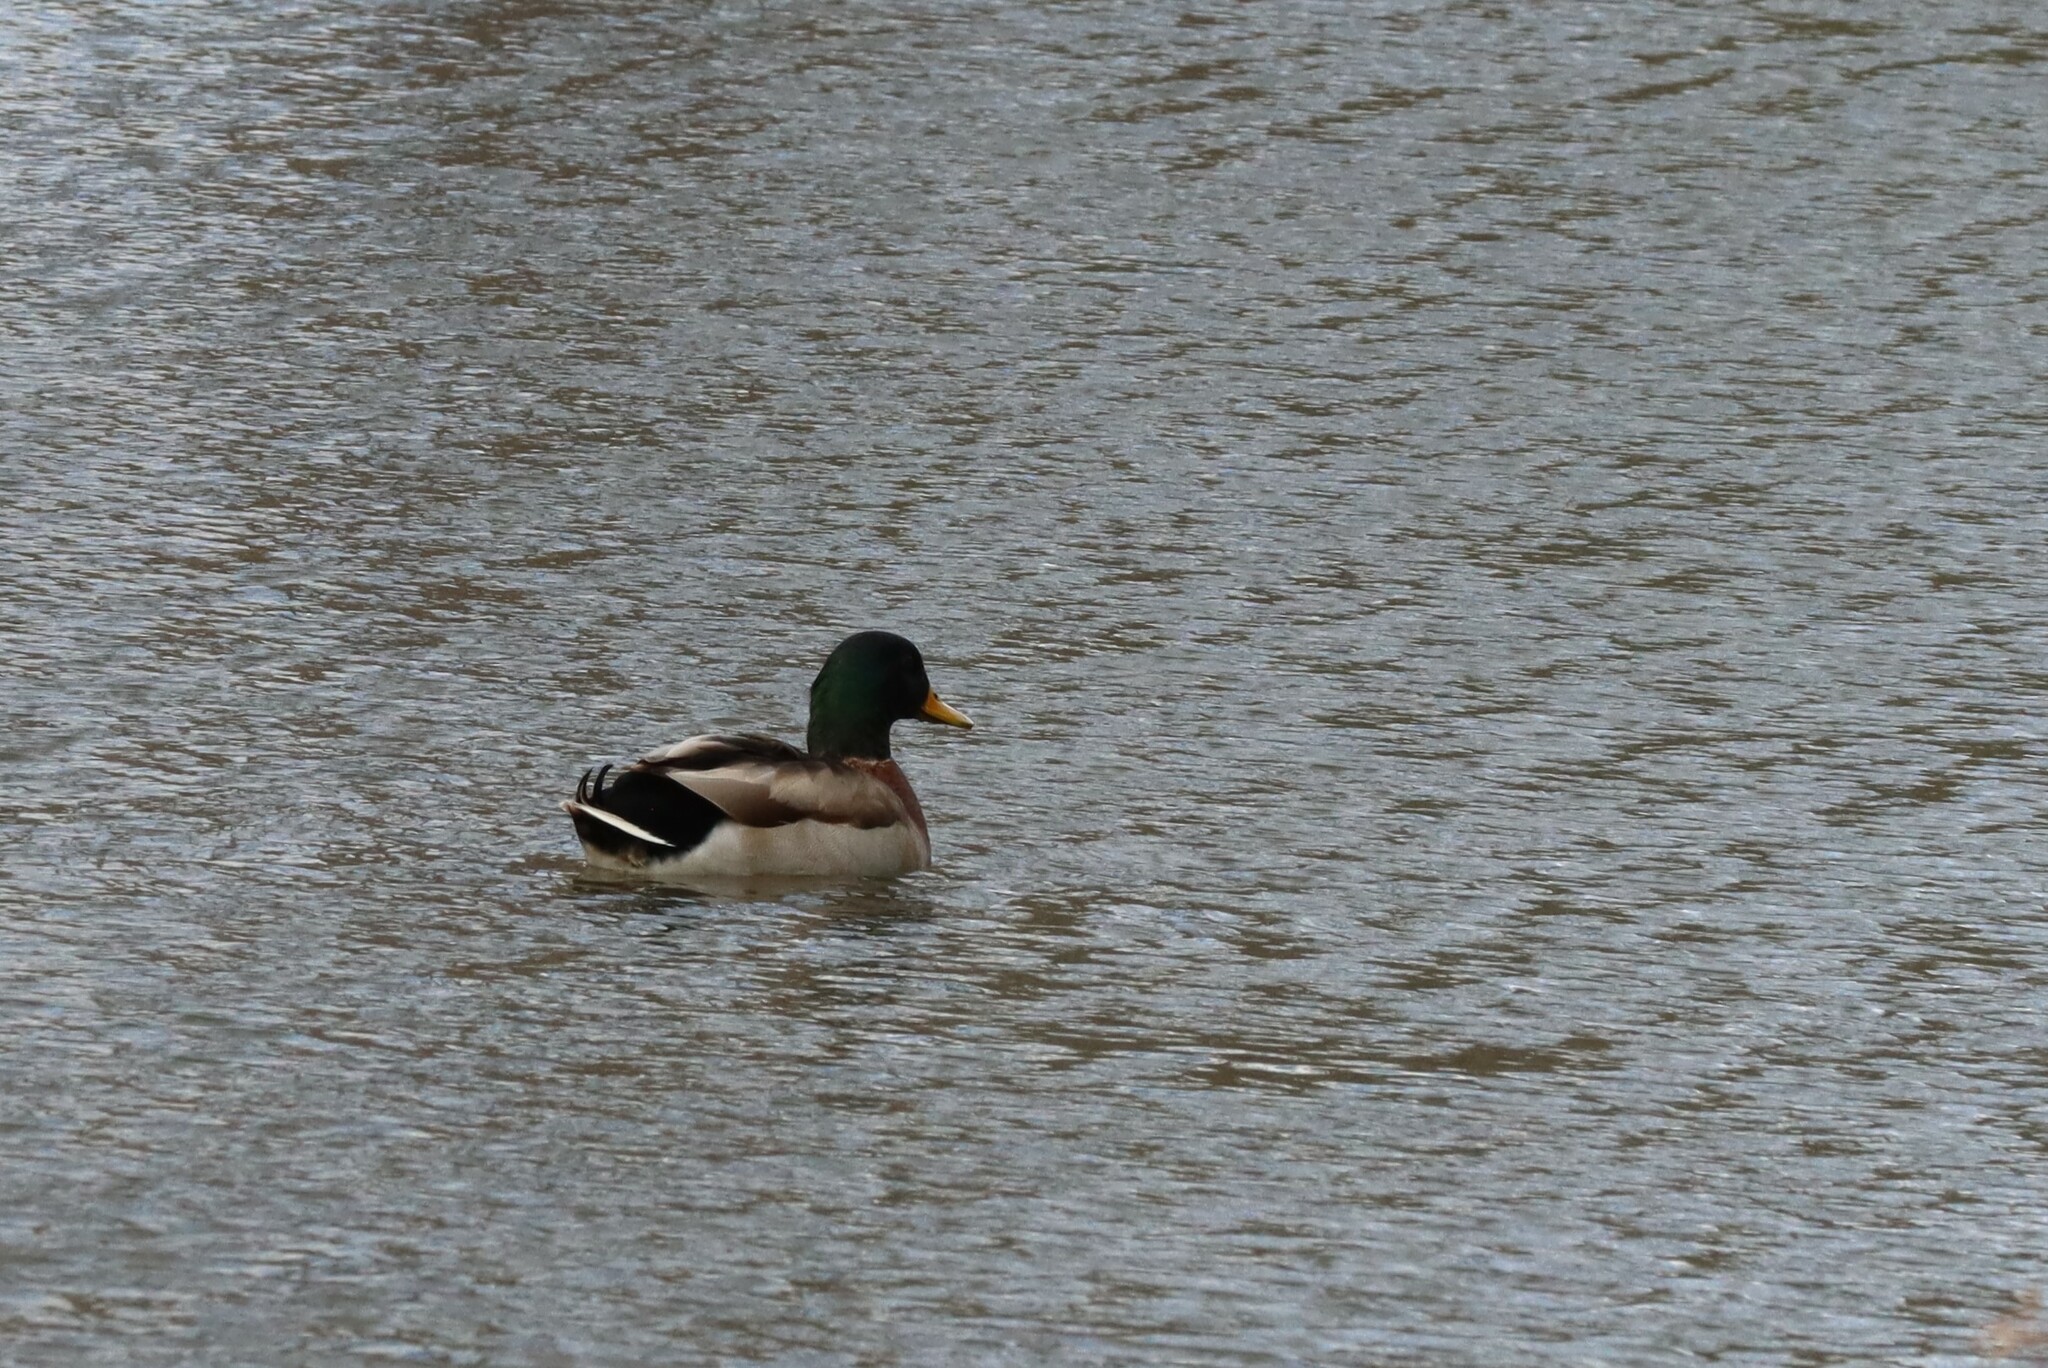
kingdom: Animalia
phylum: Chordata
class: Aves
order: Anseriformes
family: Anatidae
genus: Anas
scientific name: Anas platyrhynchos
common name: Mallard
